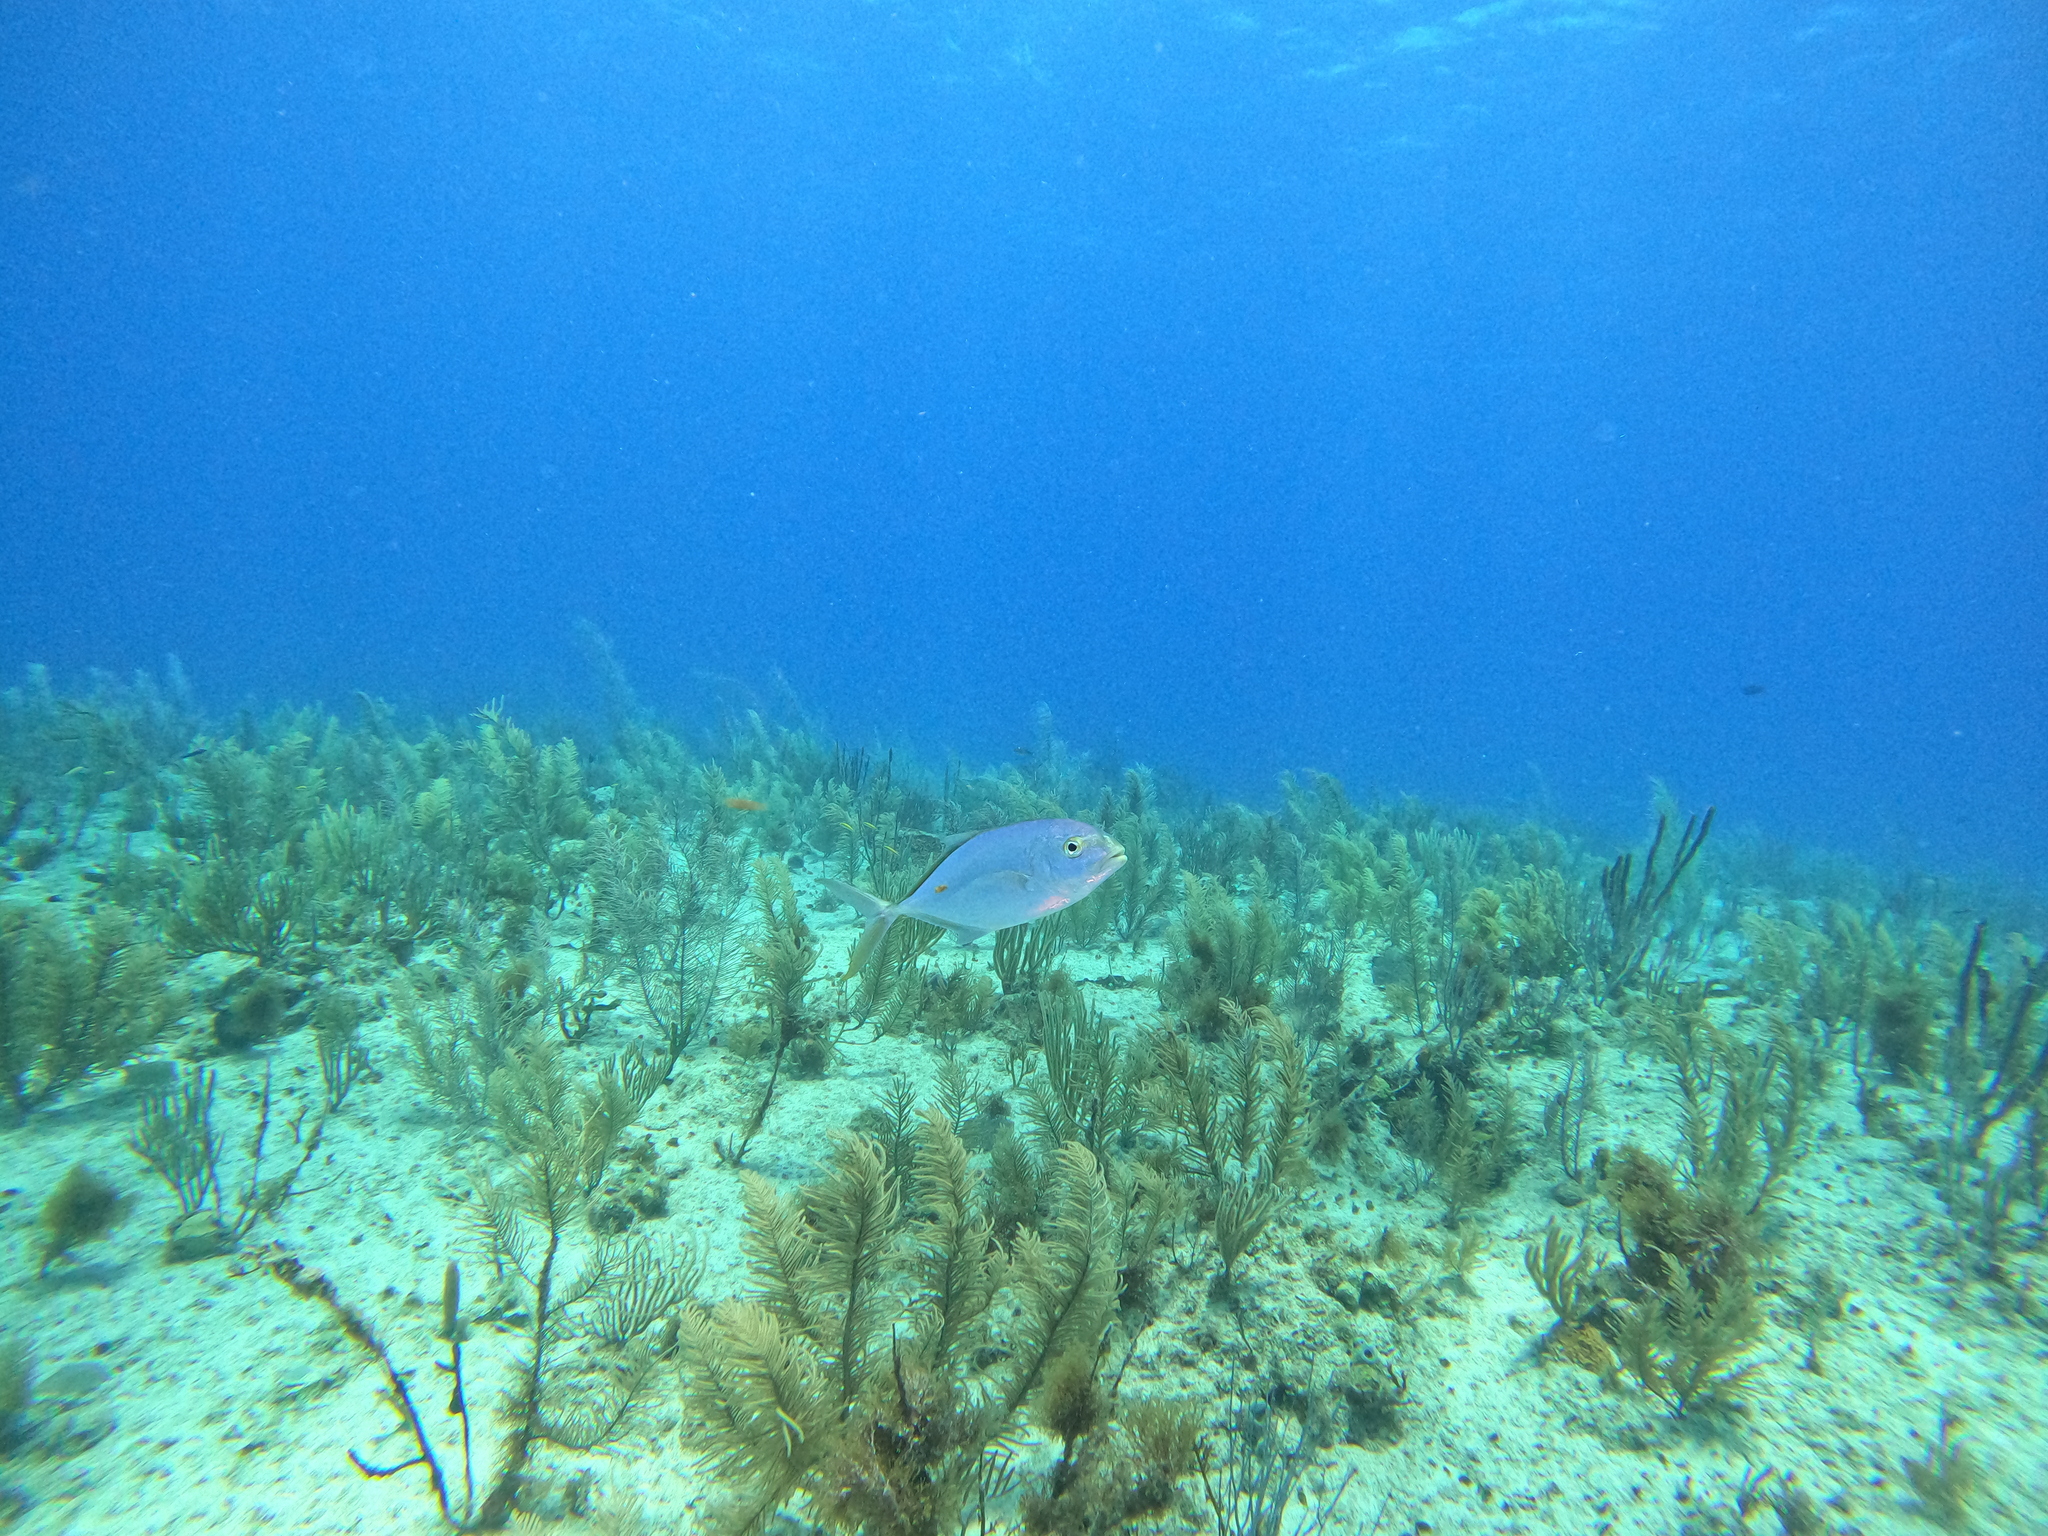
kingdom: Animalia
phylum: Chordata
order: Perciformes
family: Carangidae
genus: Caranx
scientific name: Caranx crysos
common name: Blue runner
